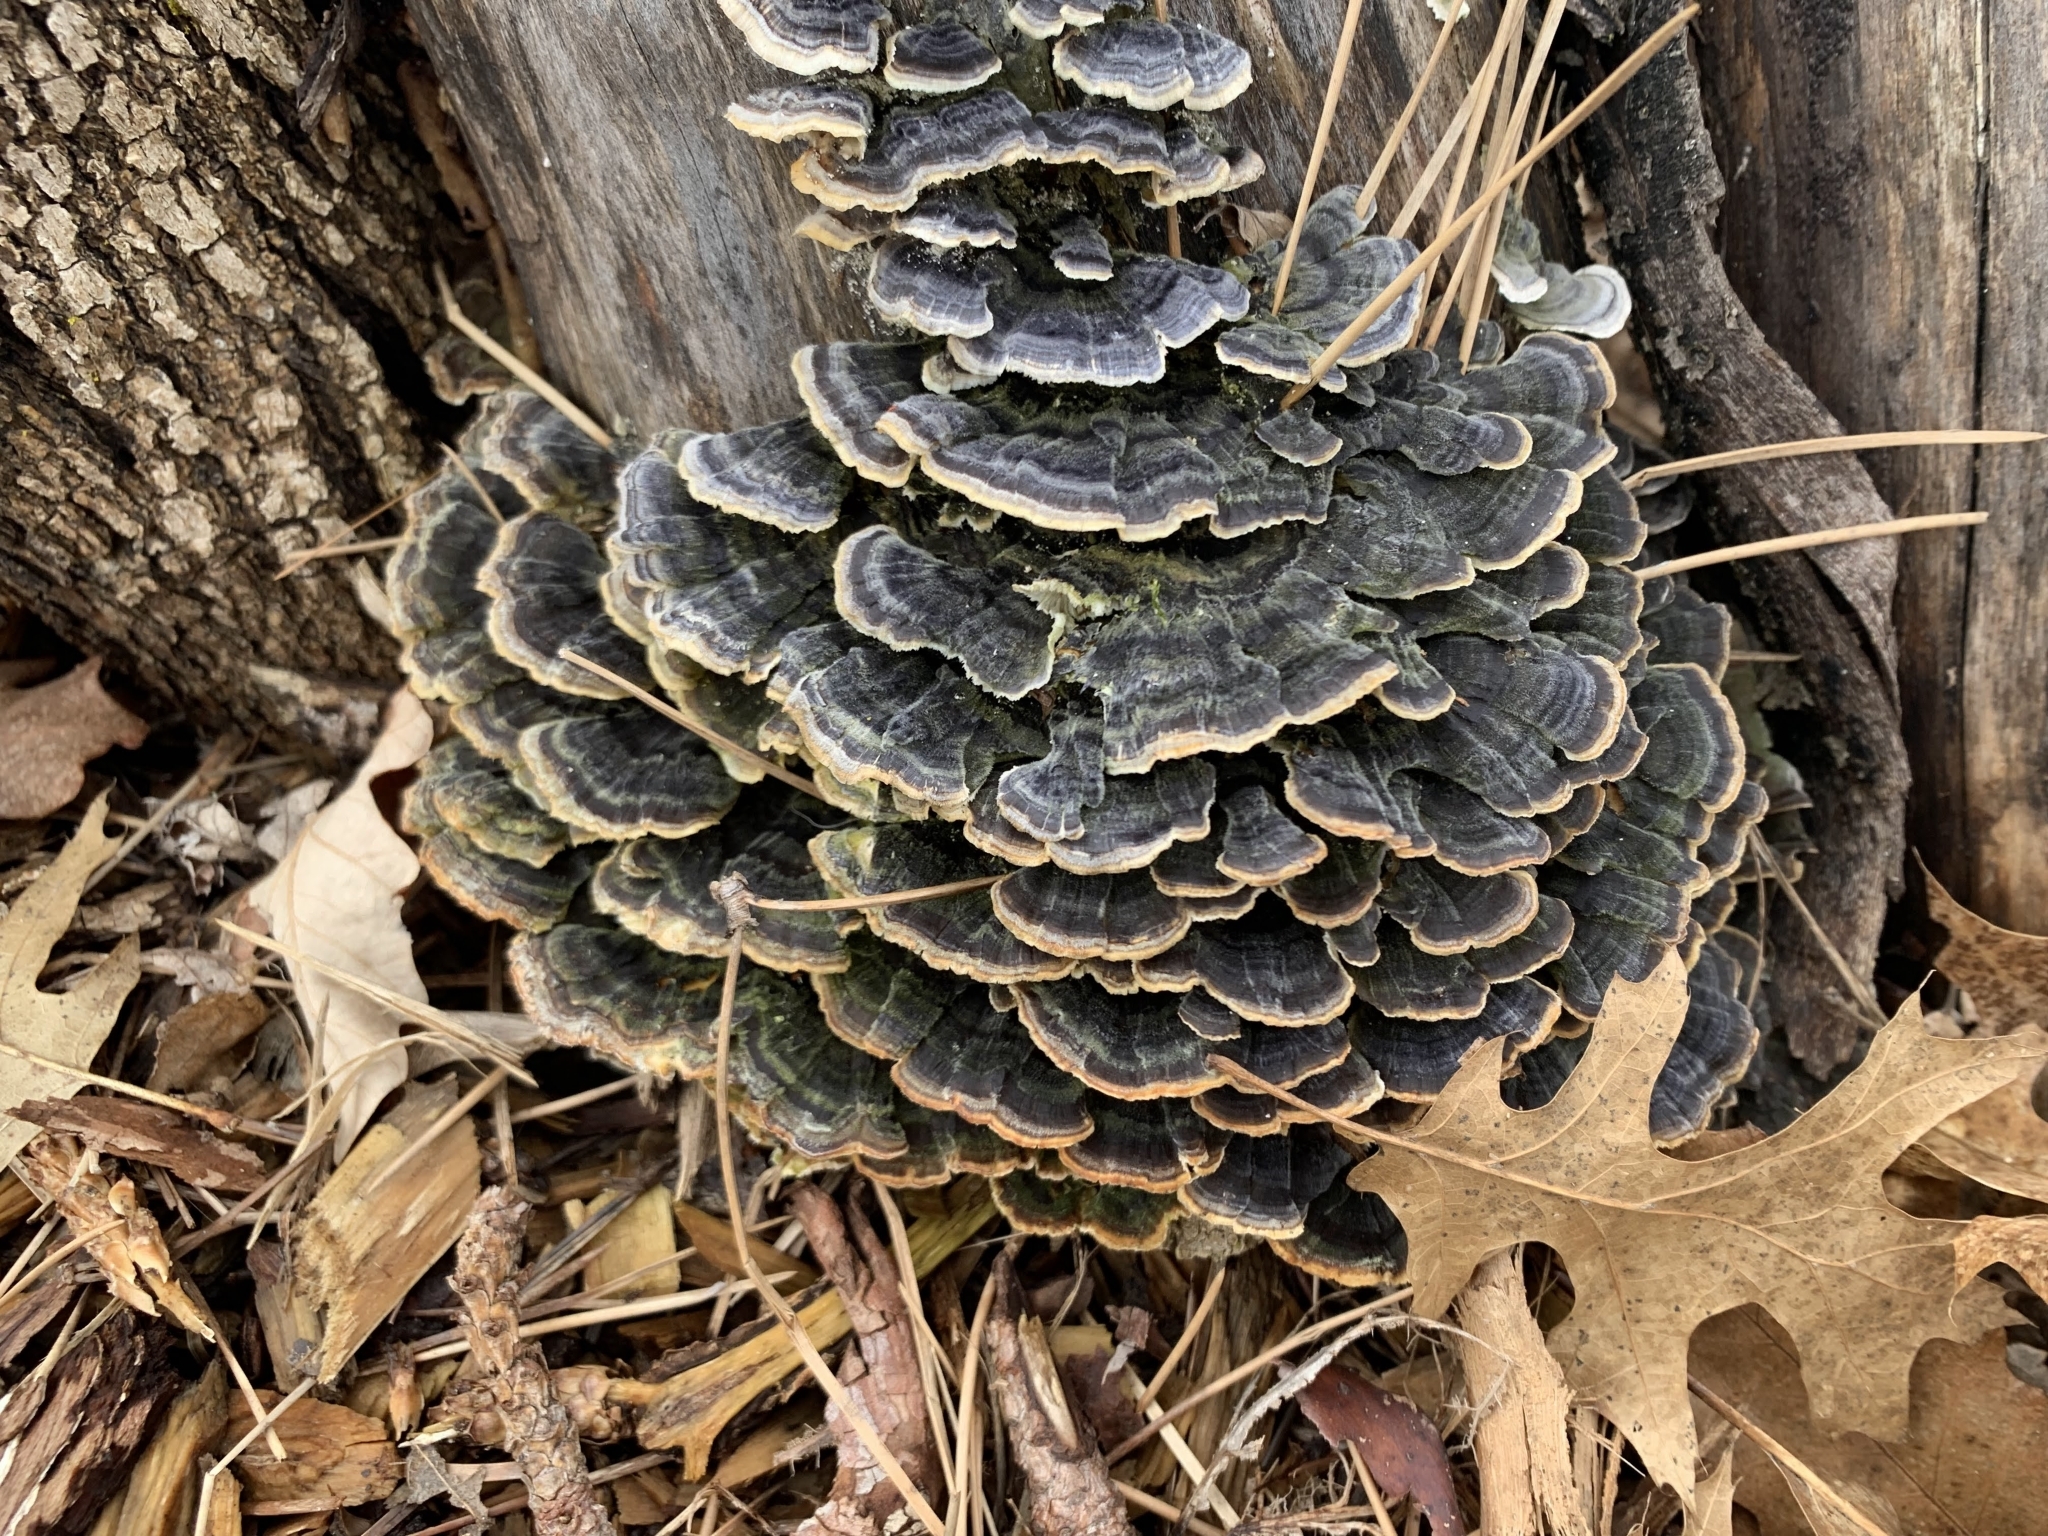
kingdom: Fungi
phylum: Basidiomycota
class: Agaricomycetes
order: Polyporales
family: Polyporaceae
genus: Trametes
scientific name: Trametes versicolor
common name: Turkeytail
